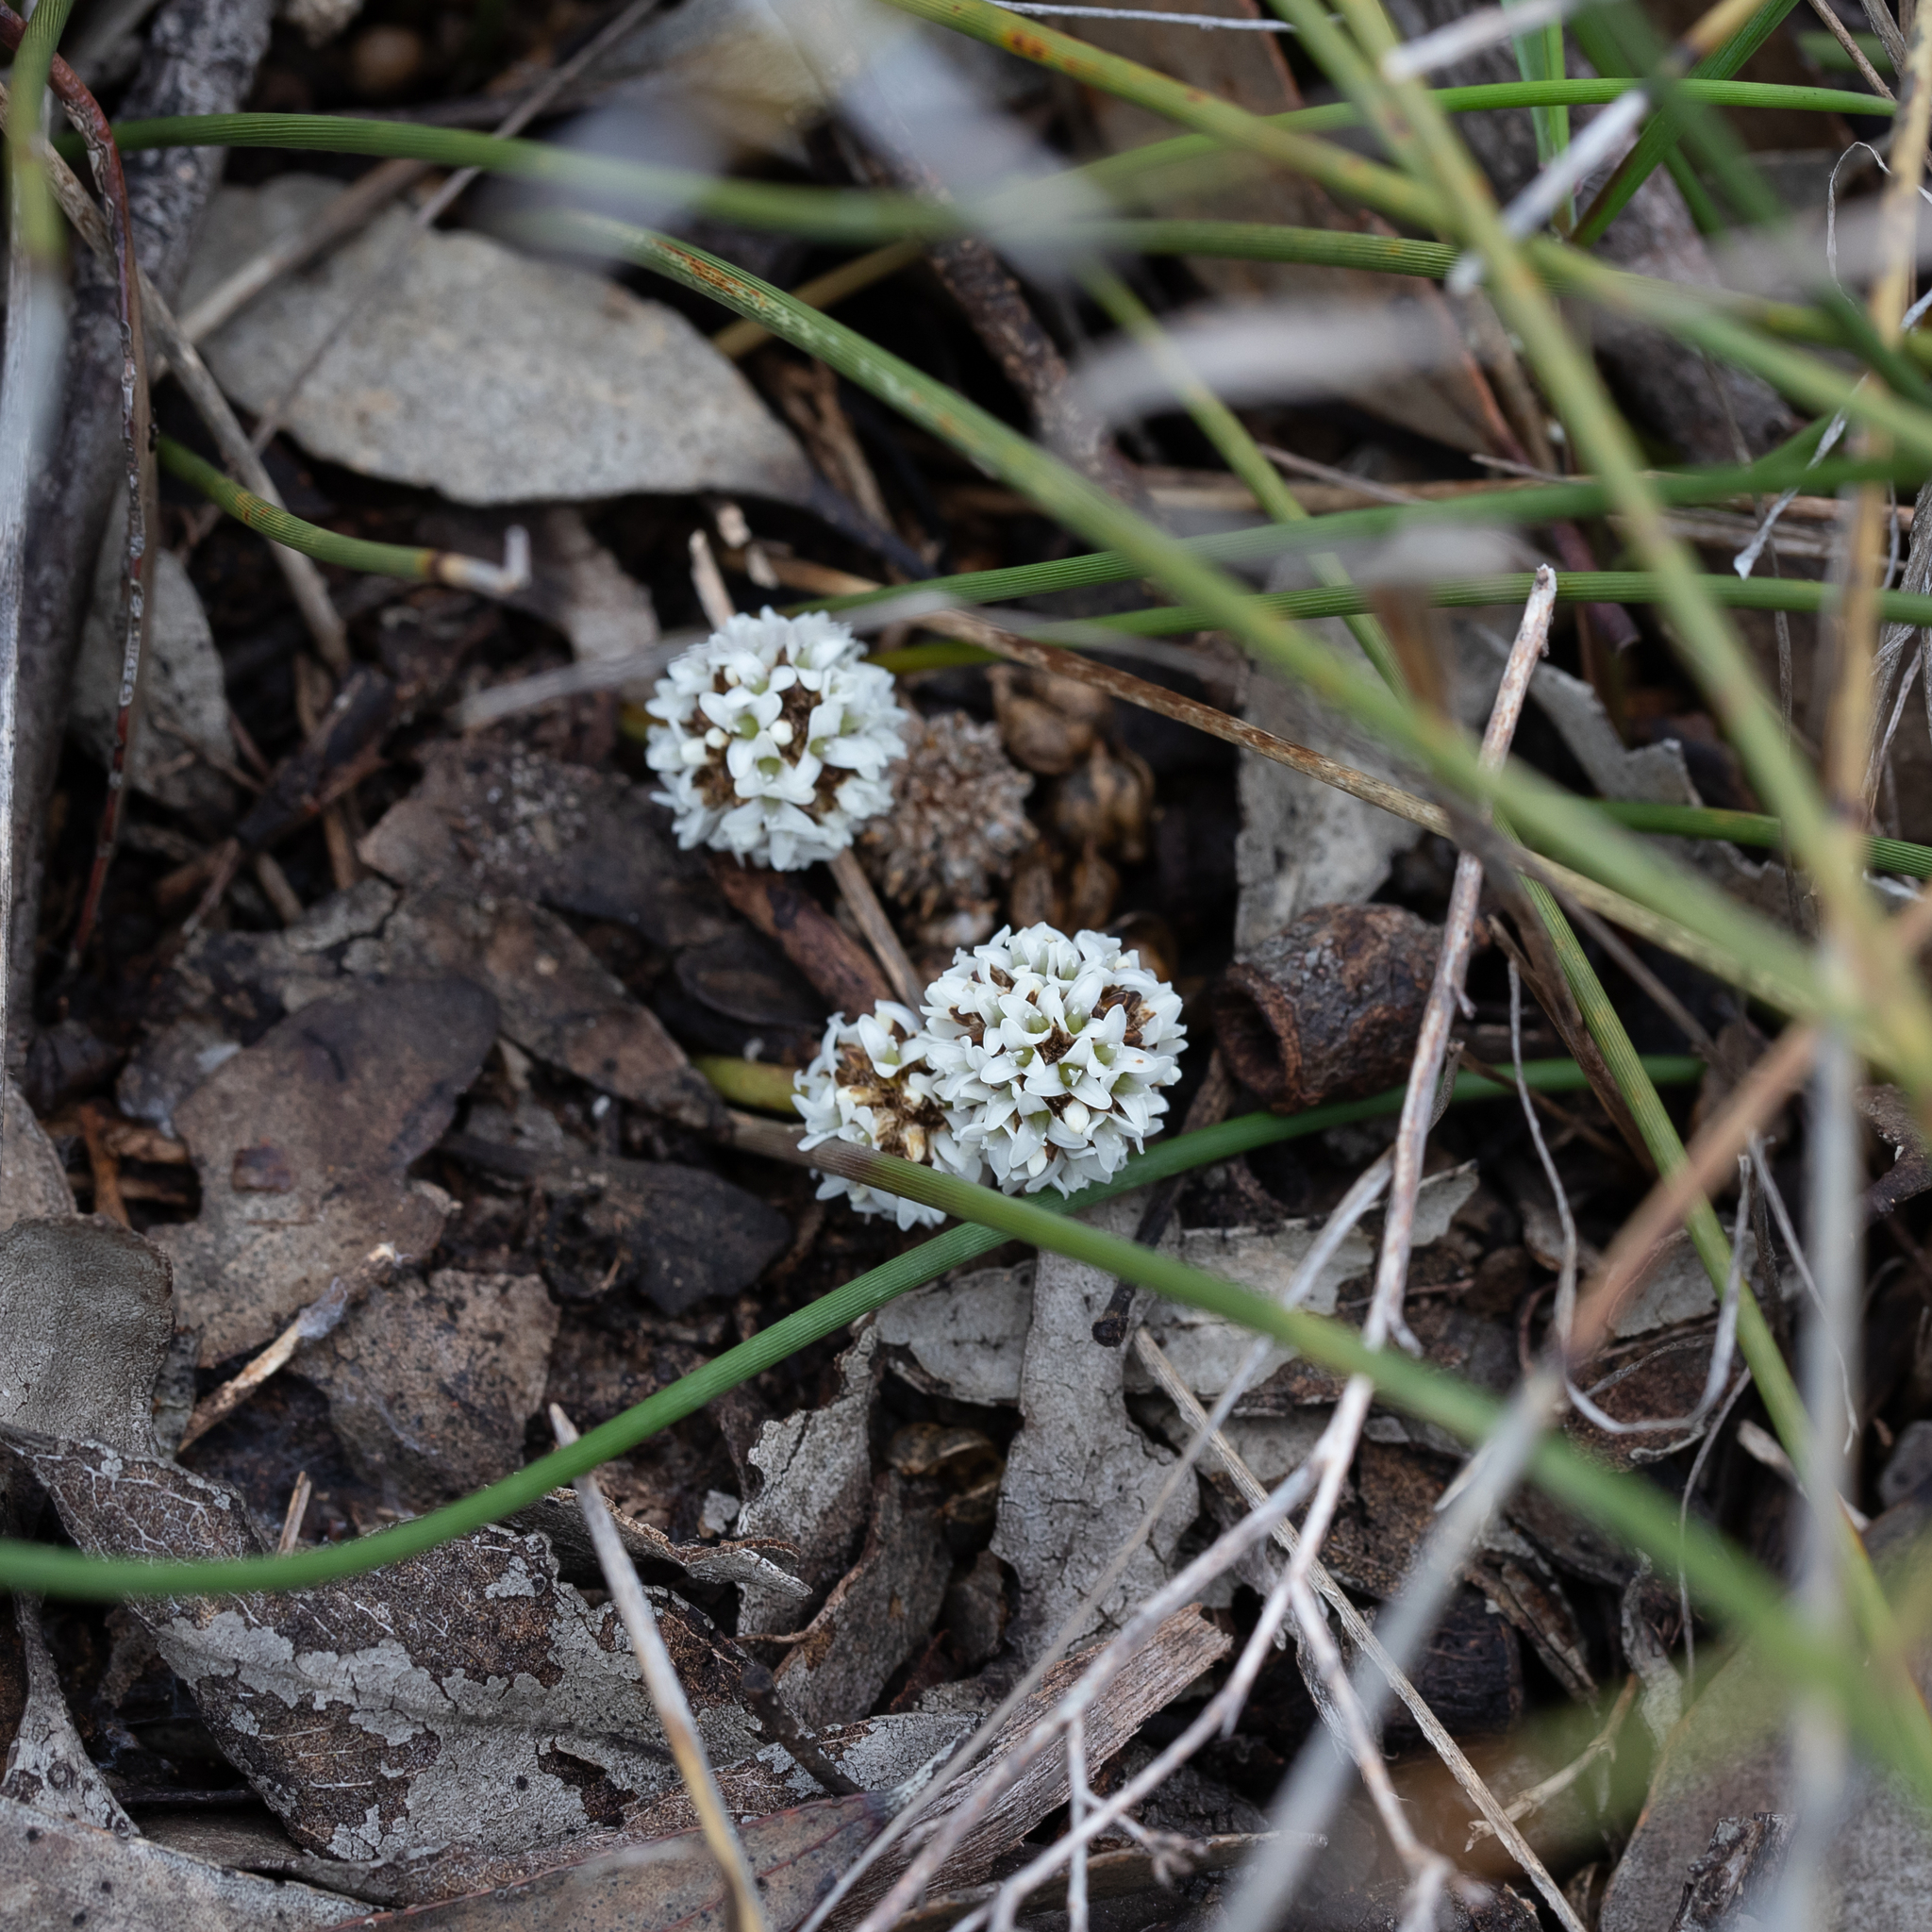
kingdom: Plantae
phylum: Tracheophyta
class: Liliopsida
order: Asparagales
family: Asparagaceae
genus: Lomandra
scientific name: Lomandra juncea
